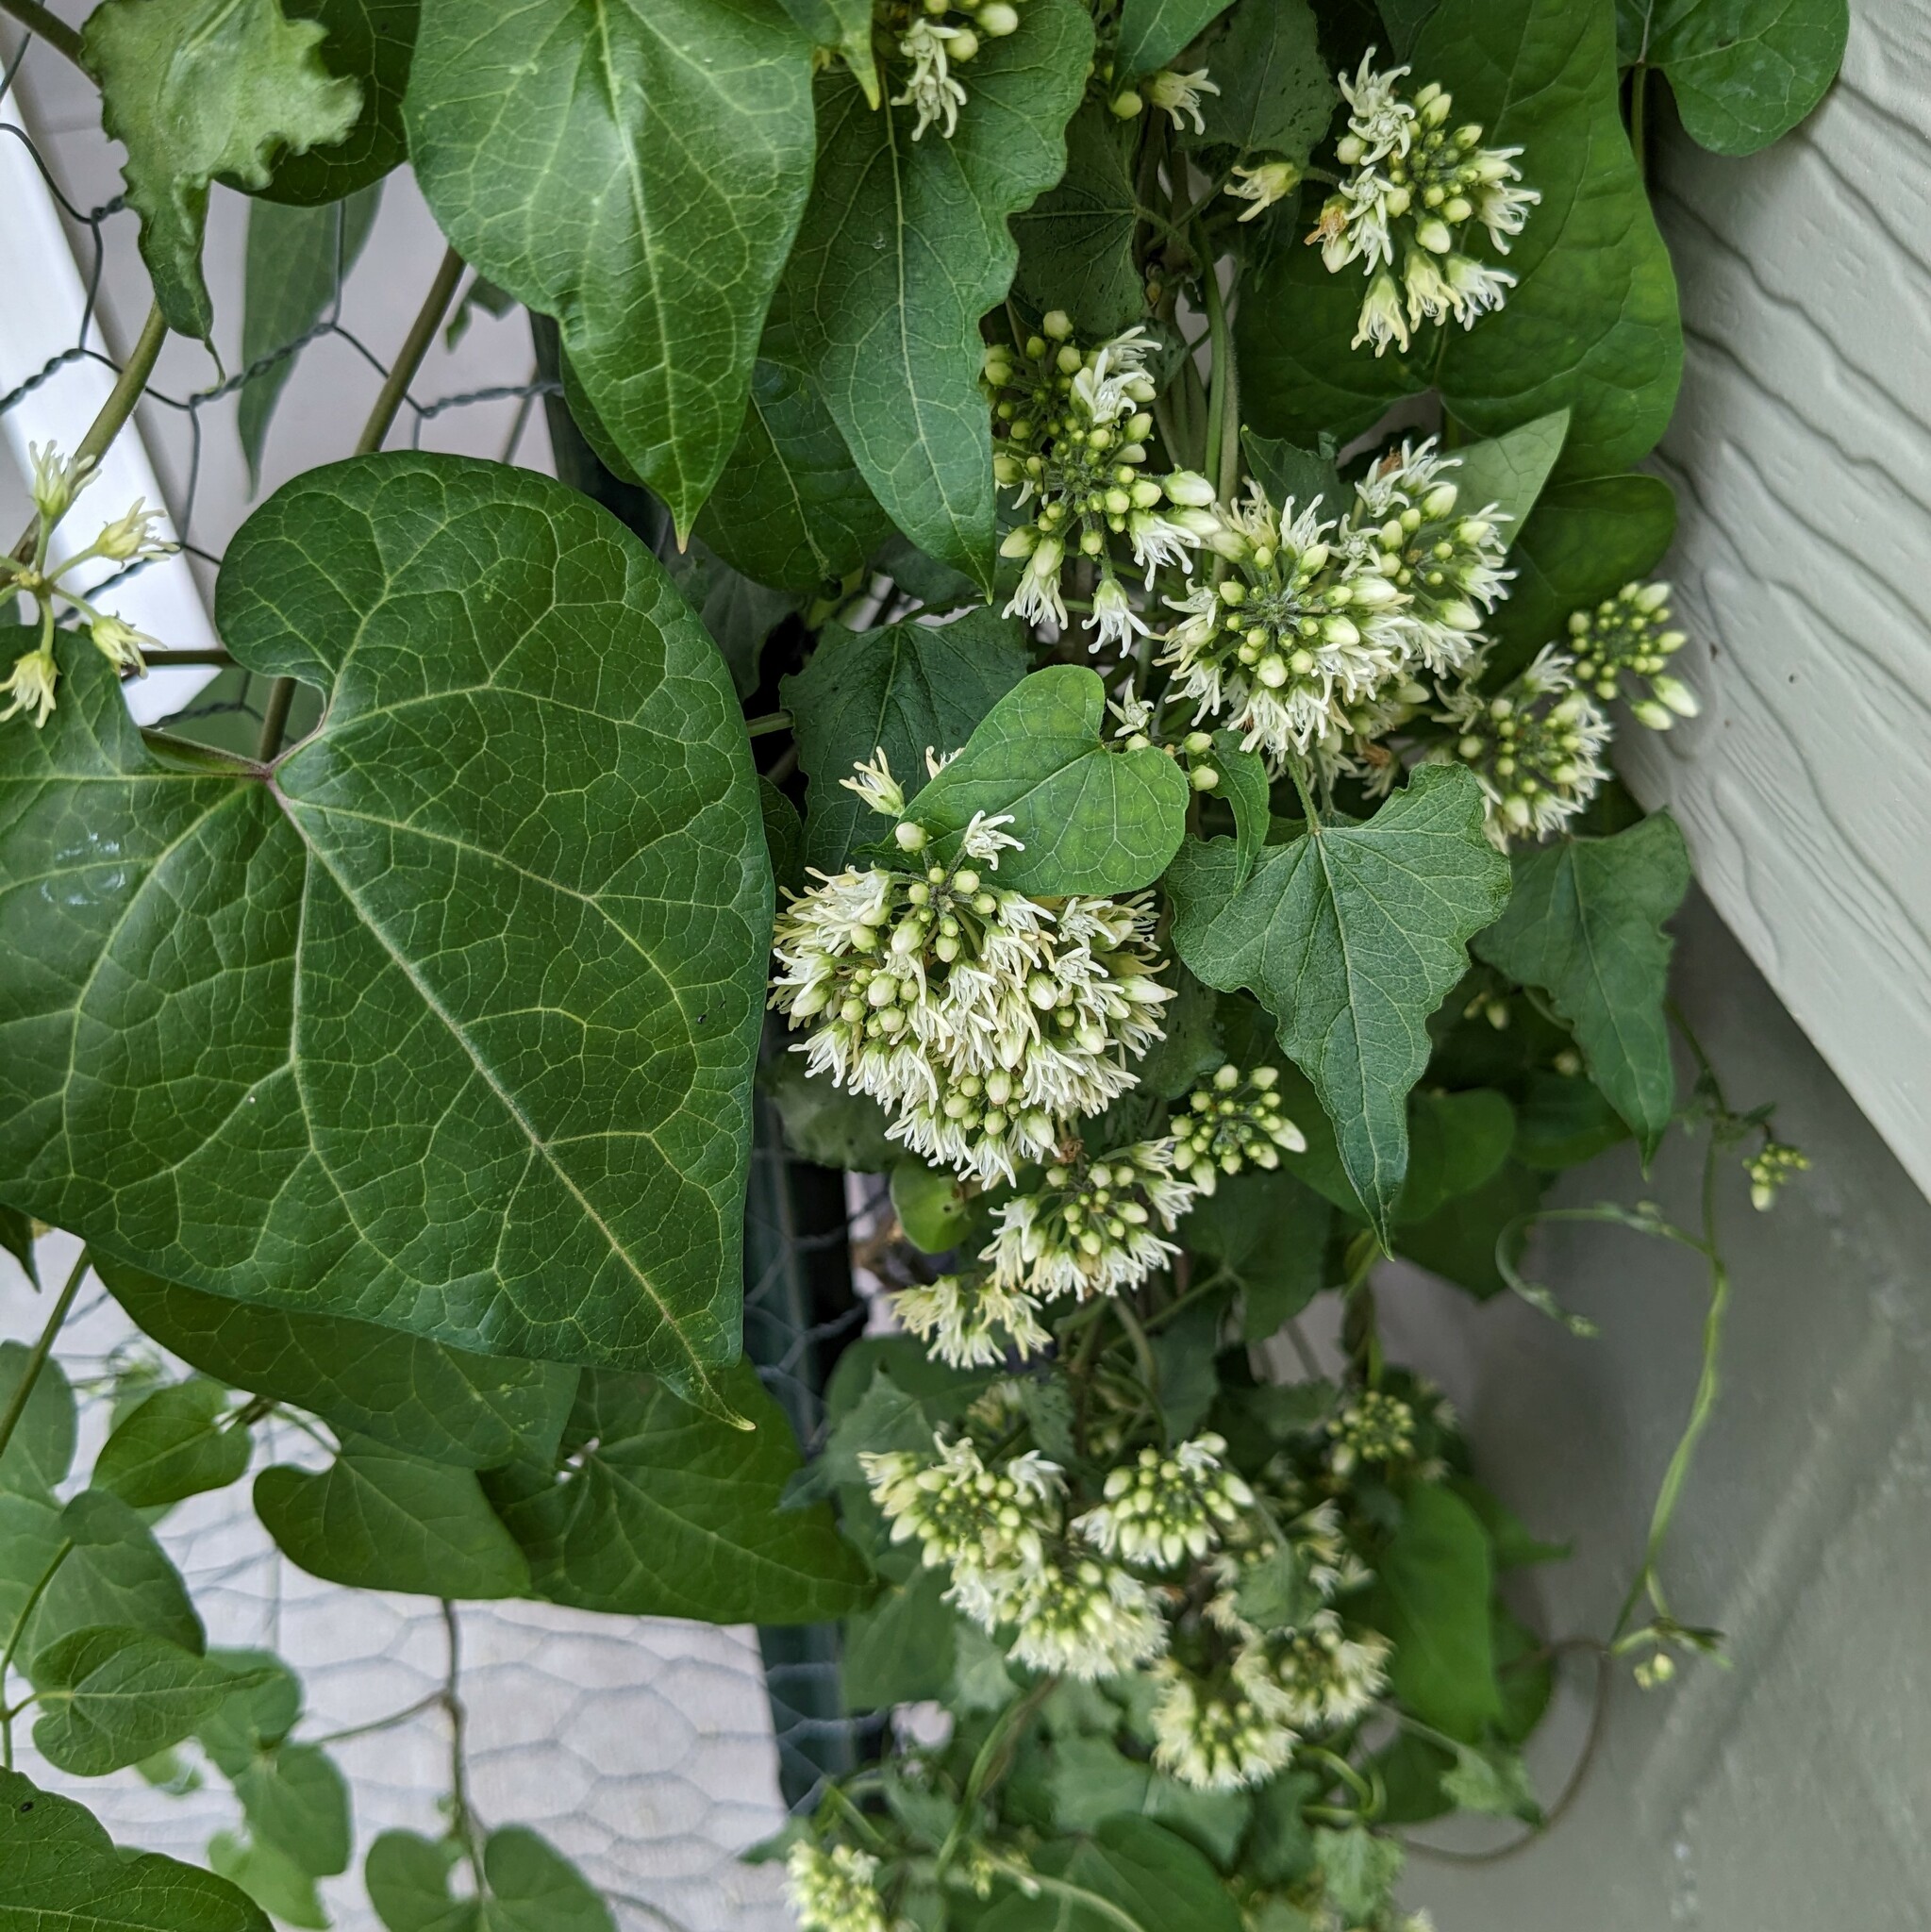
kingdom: Plantae
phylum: Tracheophyta
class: Magnoliopsida
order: Gentianales
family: Apocynaceae
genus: Cynanchum
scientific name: Cynanchum laeve
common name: Sandvine
